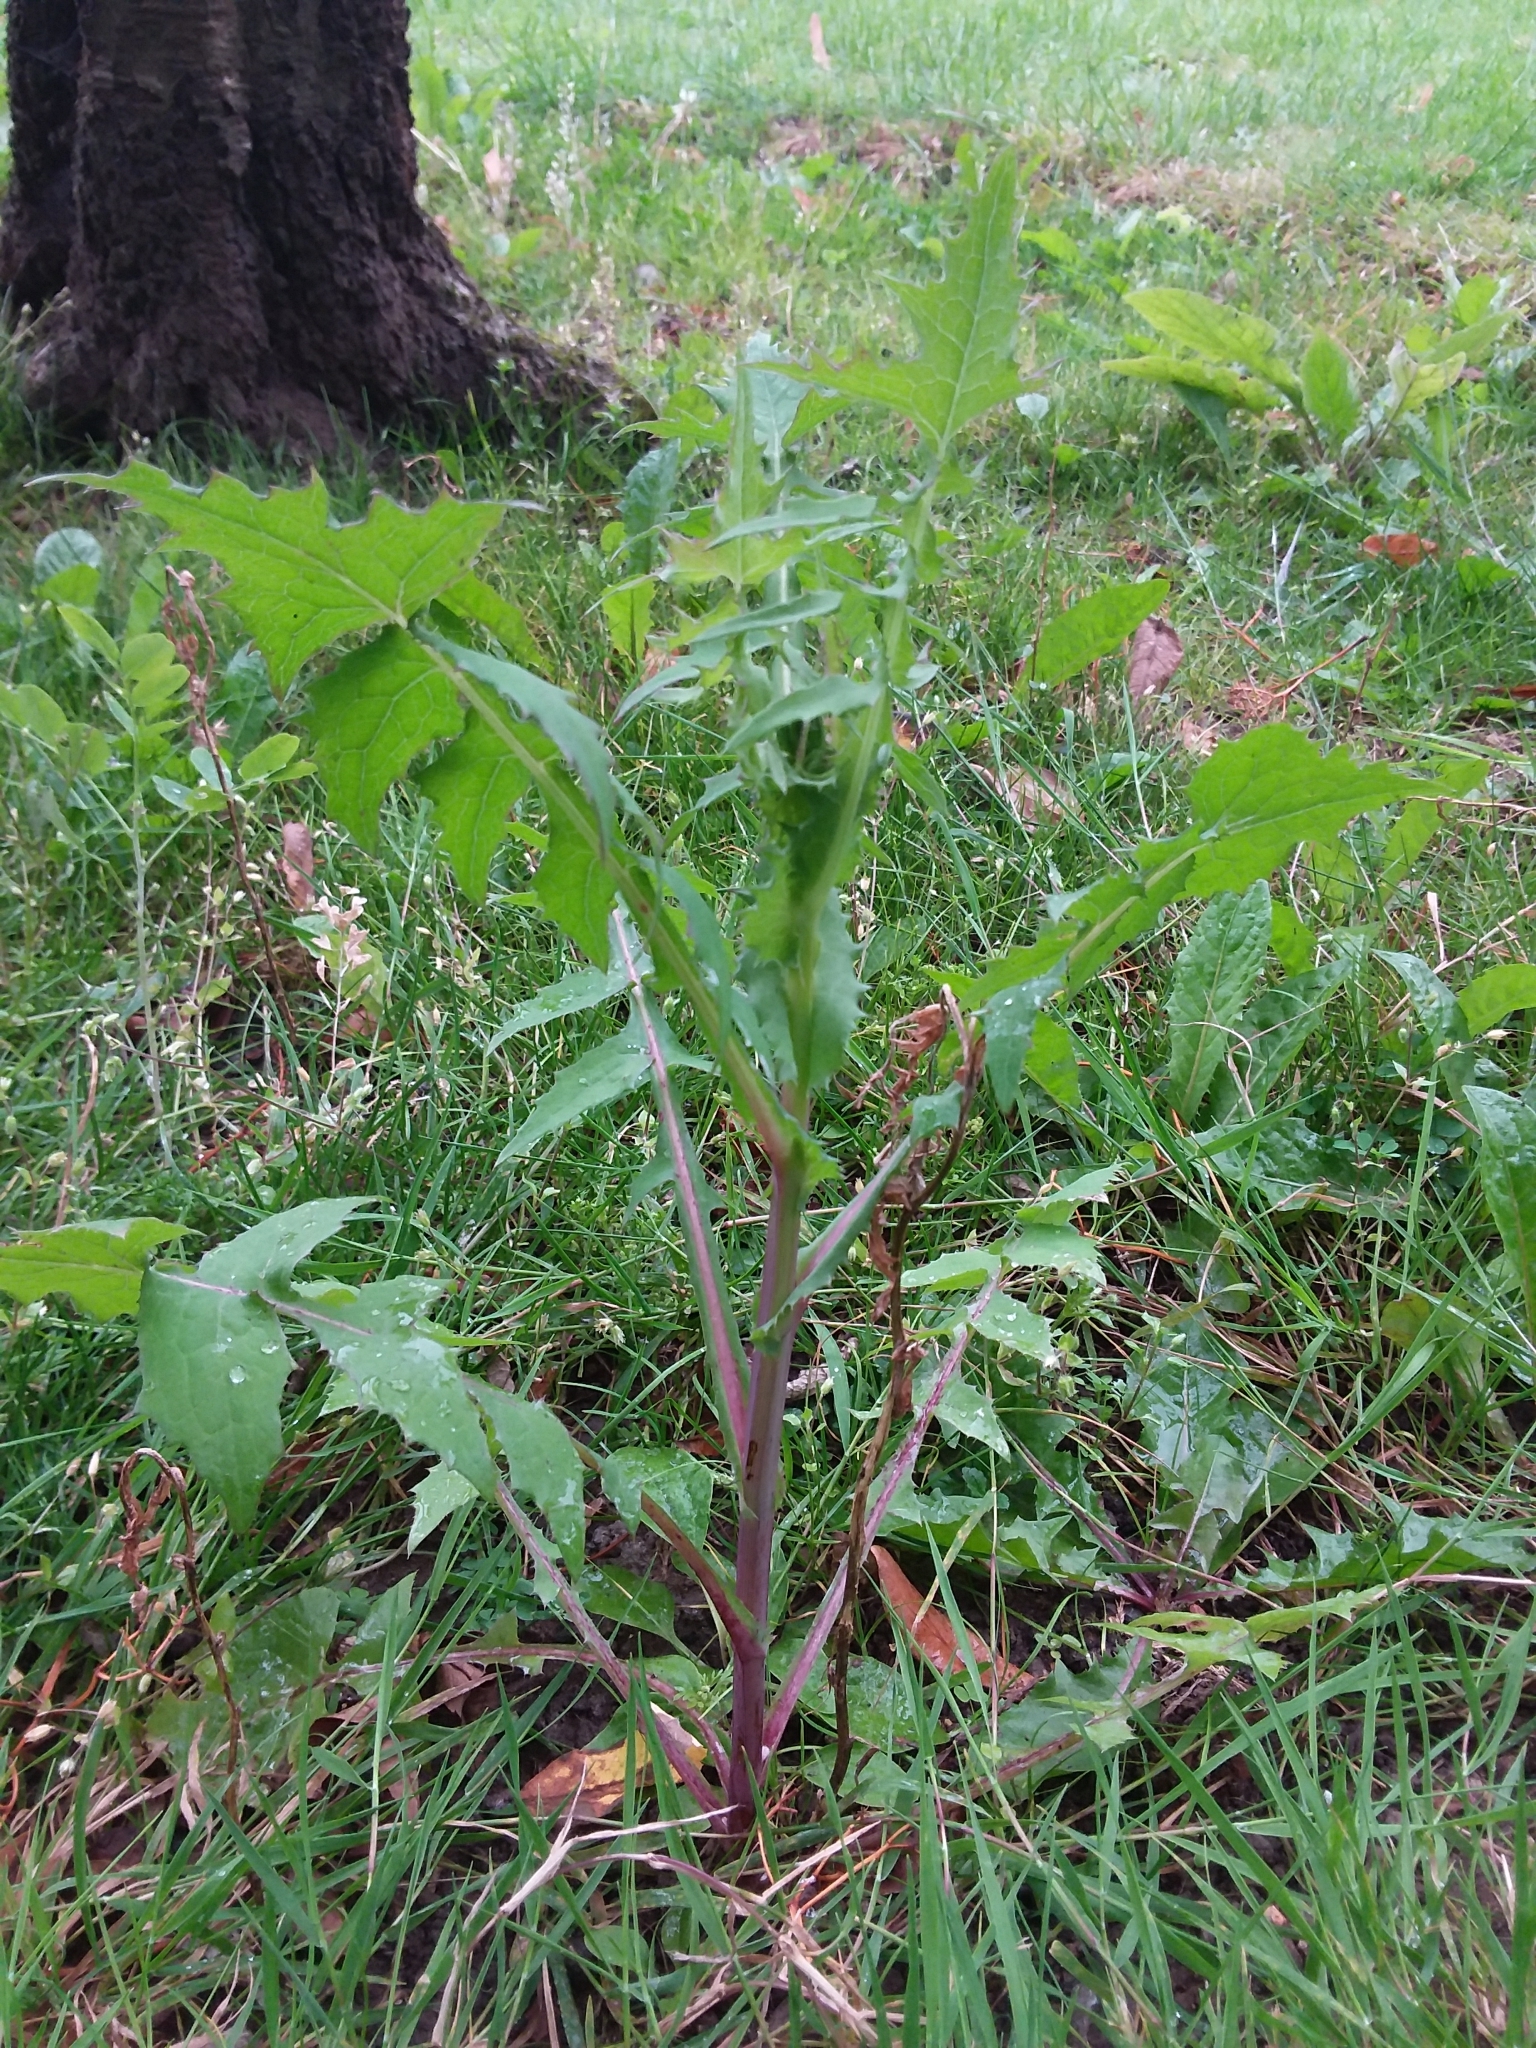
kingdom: Plantae
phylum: Tracheophyta
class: Magnoliopsida
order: Asterales
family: Asteraceae
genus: Sonchus
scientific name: Sonchus oleraceus
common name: Common sowthistle
